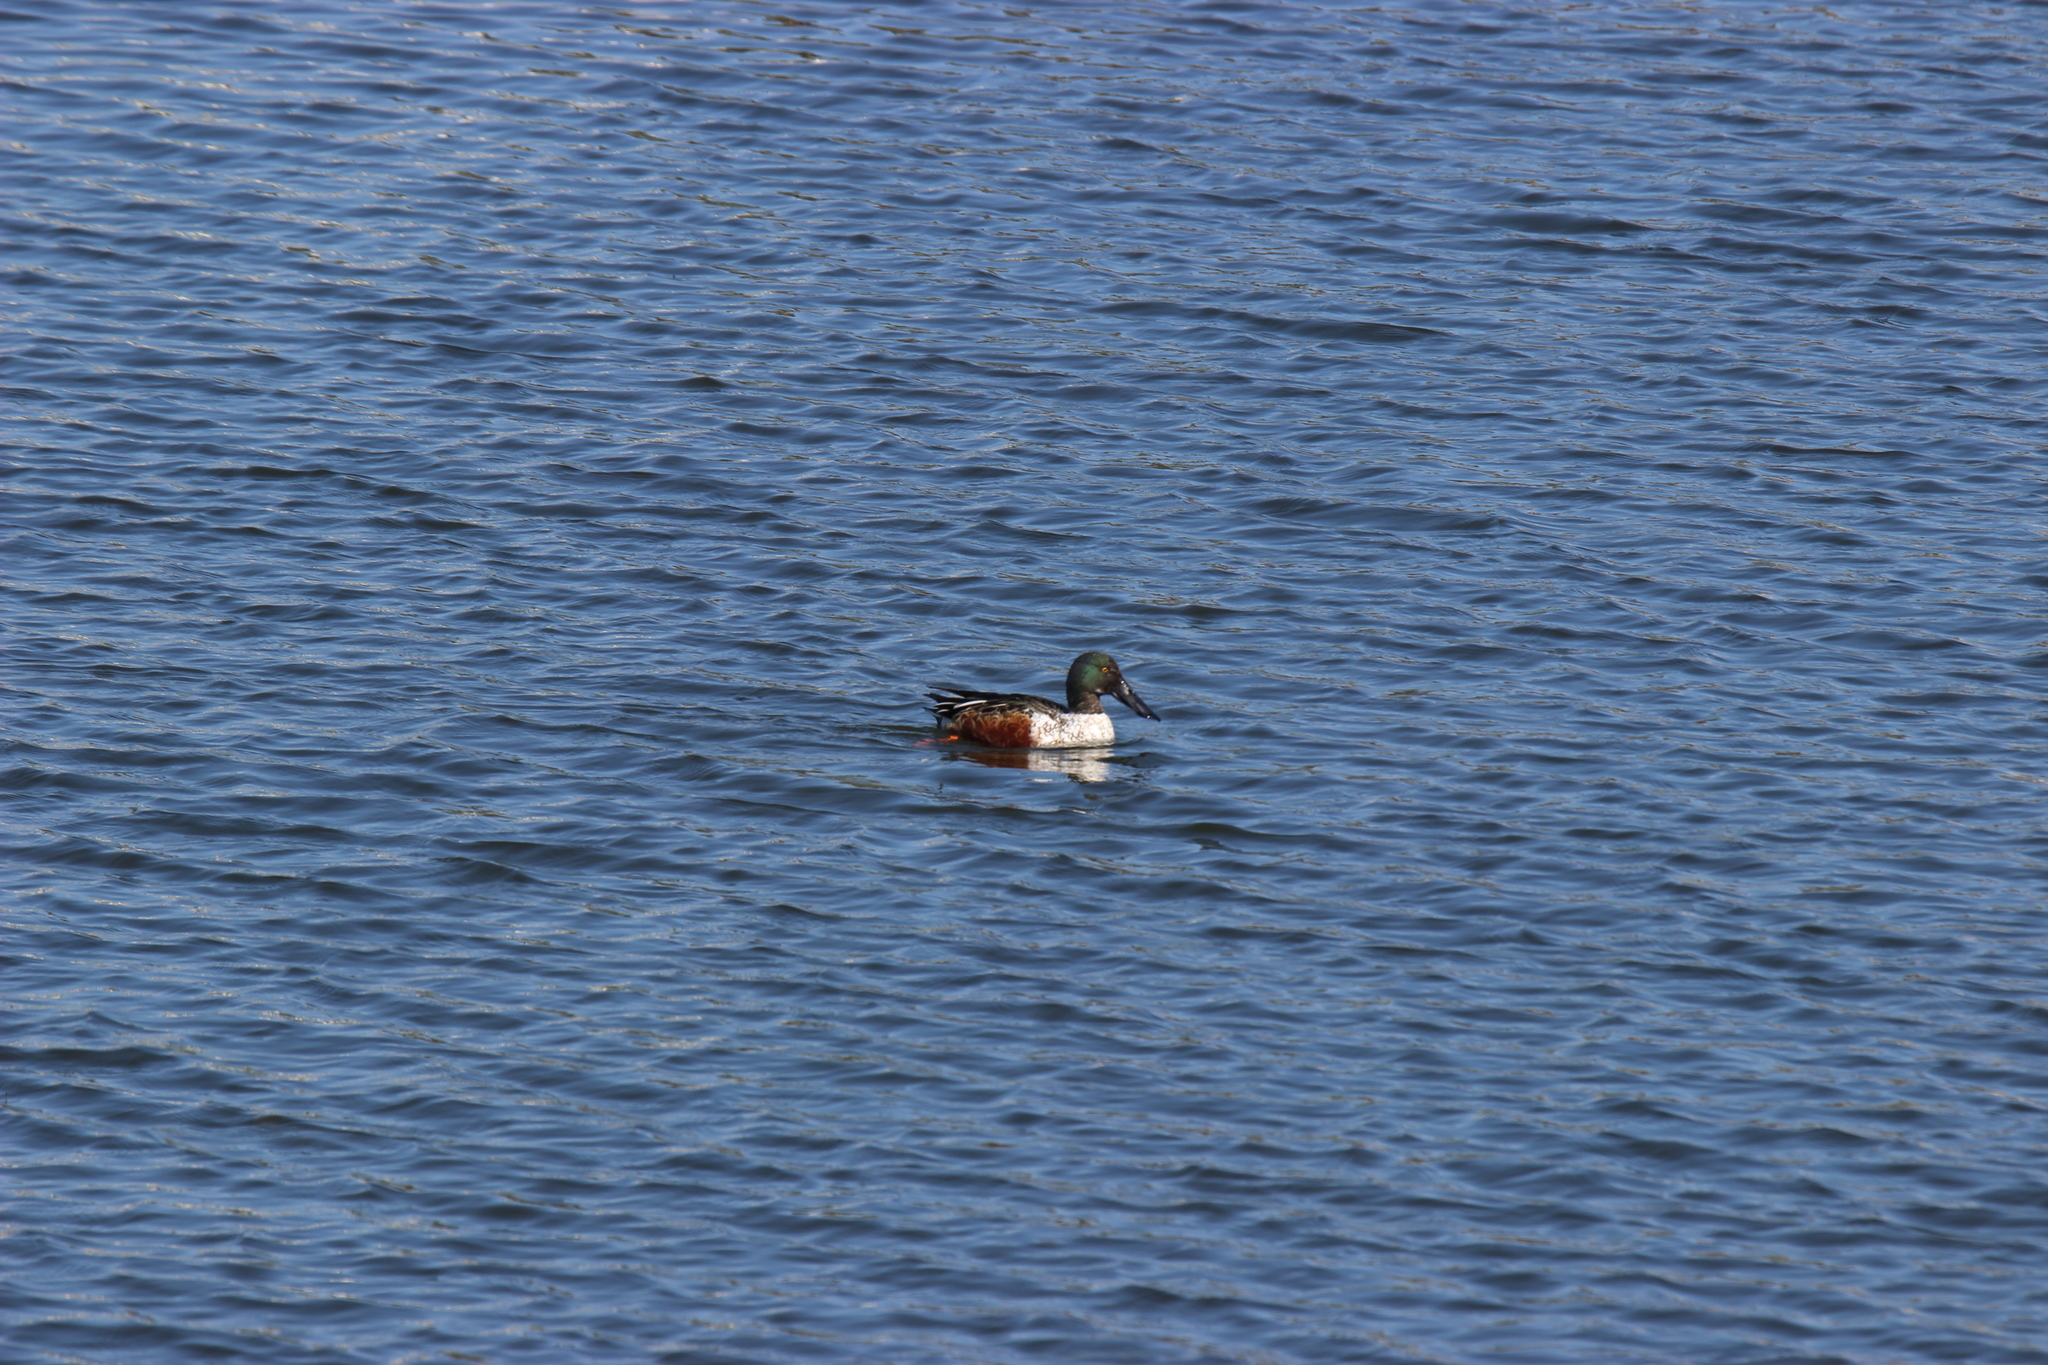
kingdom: Animalia
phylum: Chordata
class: Aves
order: Anseriformes
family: Anatidae
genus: Spatula
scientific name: Spatula clypeata
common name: Northern shoveler
